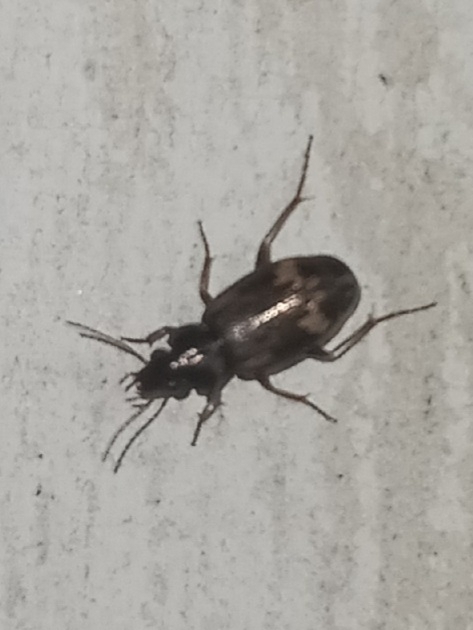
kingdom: Animalia
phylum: Arthropoda
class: Insecta
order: Coleoptera
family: Carabidae
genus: Tetragonoderus
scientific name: Tetragonoderus intersectus
